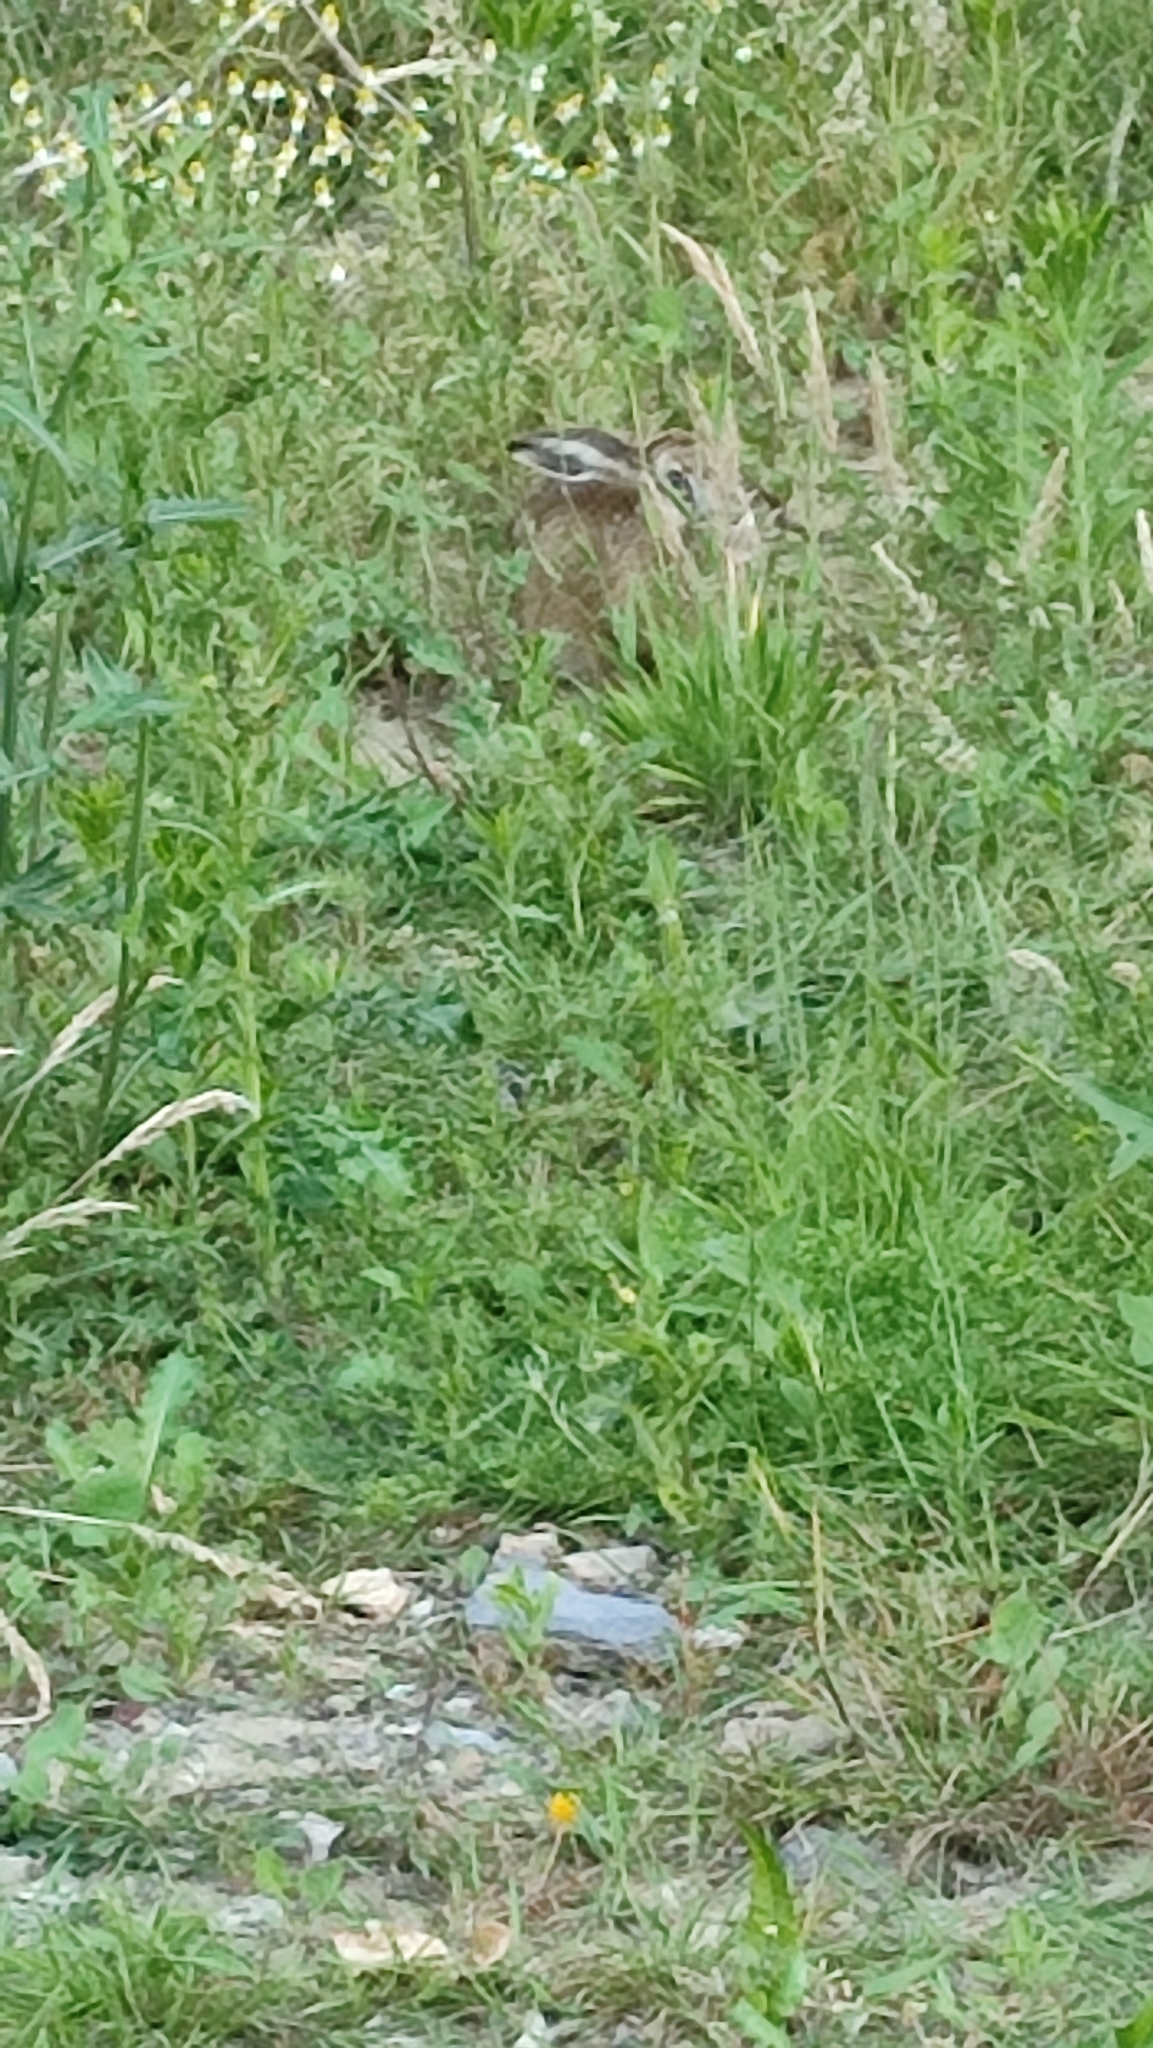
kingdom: Animalia
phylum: Chordata
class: Mammalia
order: Lagomorpha
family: Leporidae
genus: Lepus
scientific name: Lepus europaeus
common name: European hare
